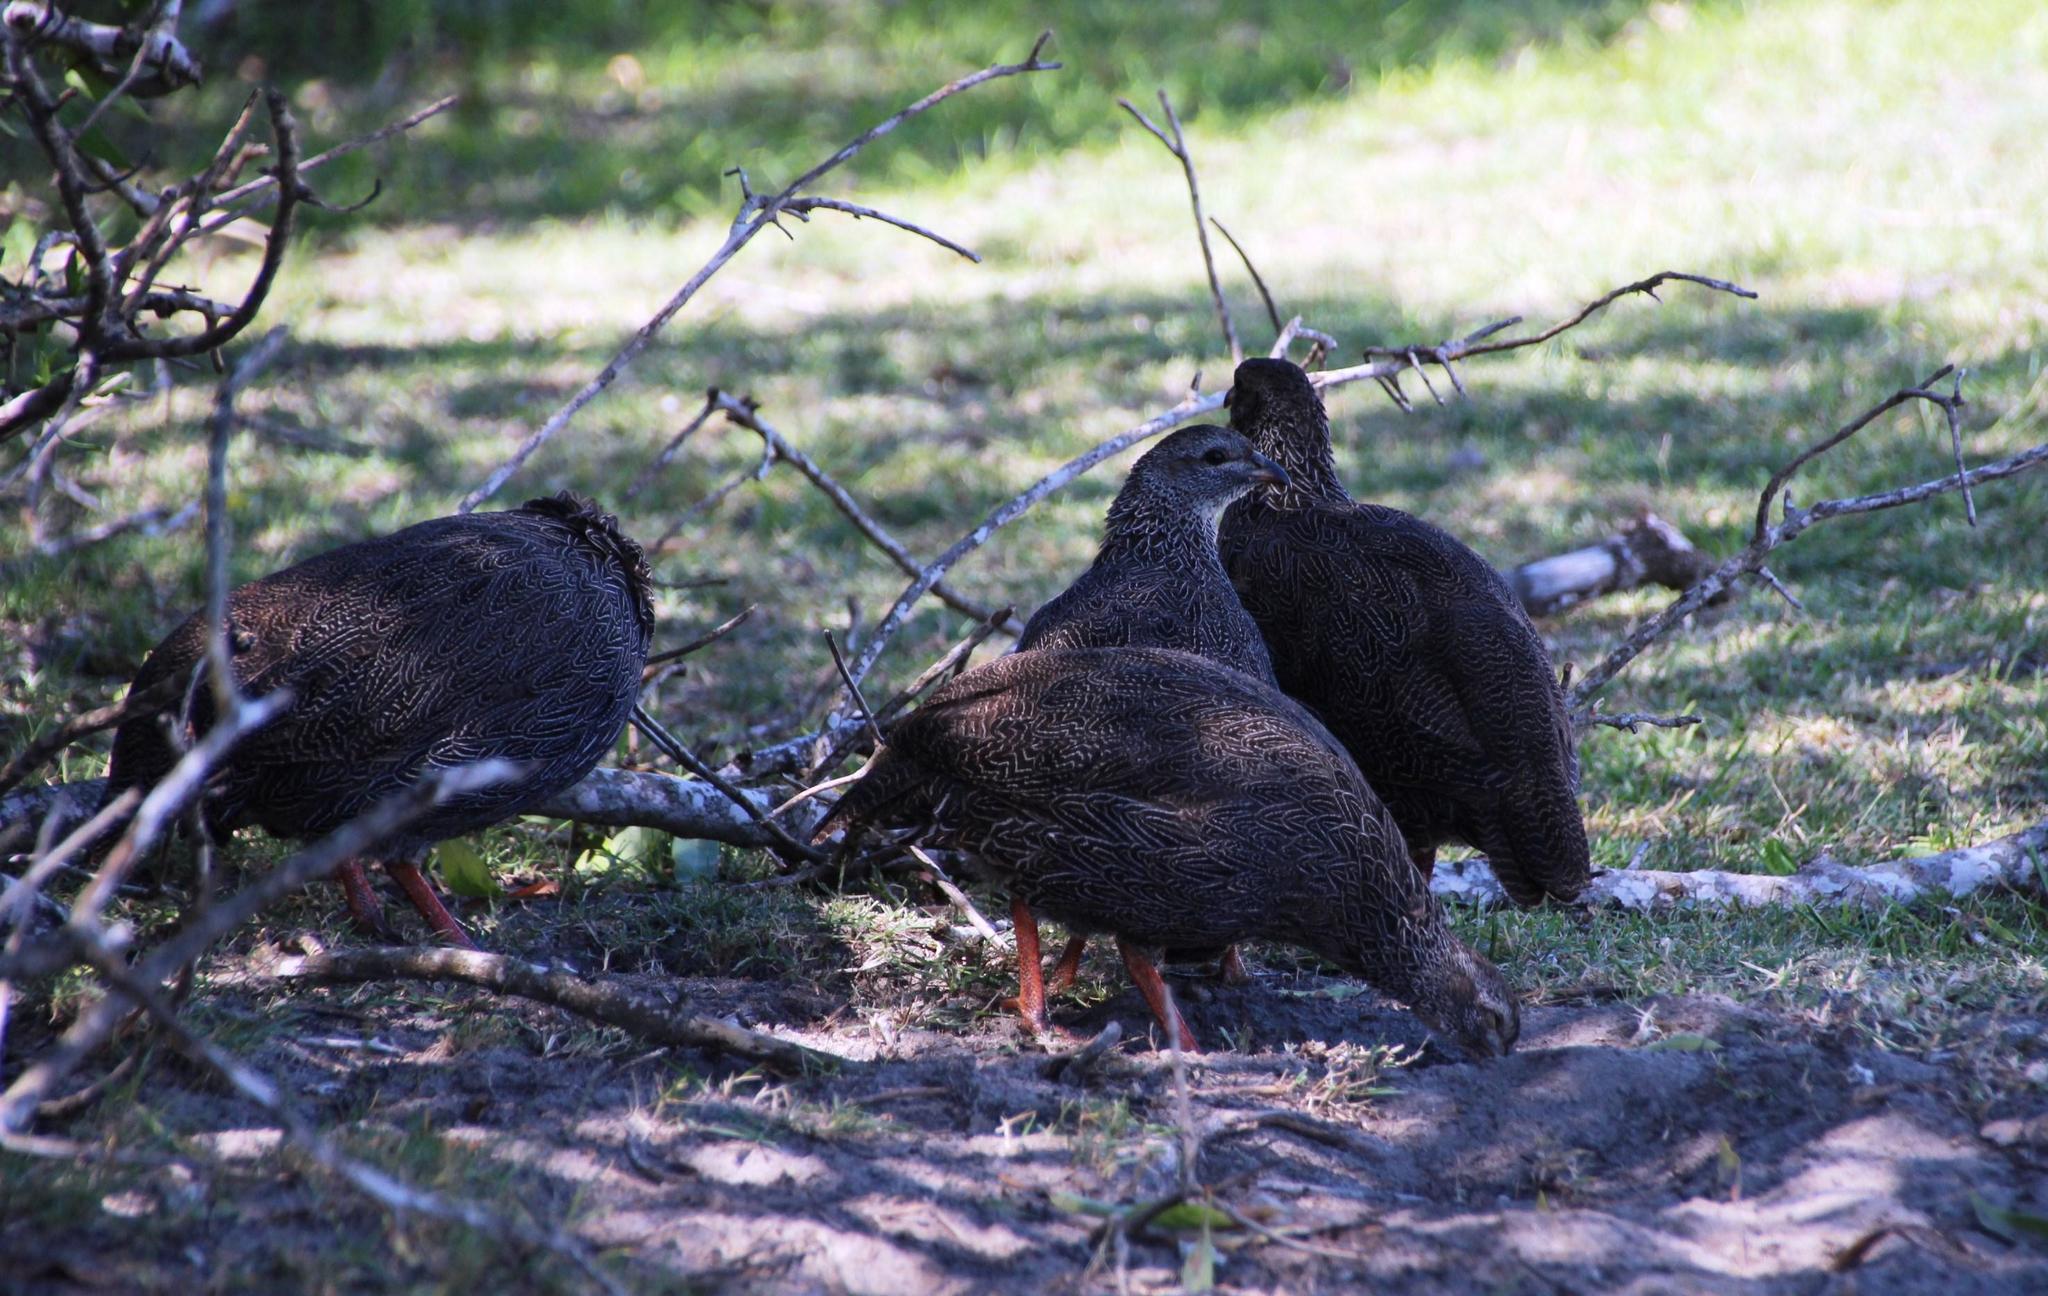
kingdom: Animalia
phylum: Chordata
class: Aves
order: Galliformes
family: Phasianidae
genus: Pternistis
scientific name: Pternistis capensis
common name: Cape spurfowl
